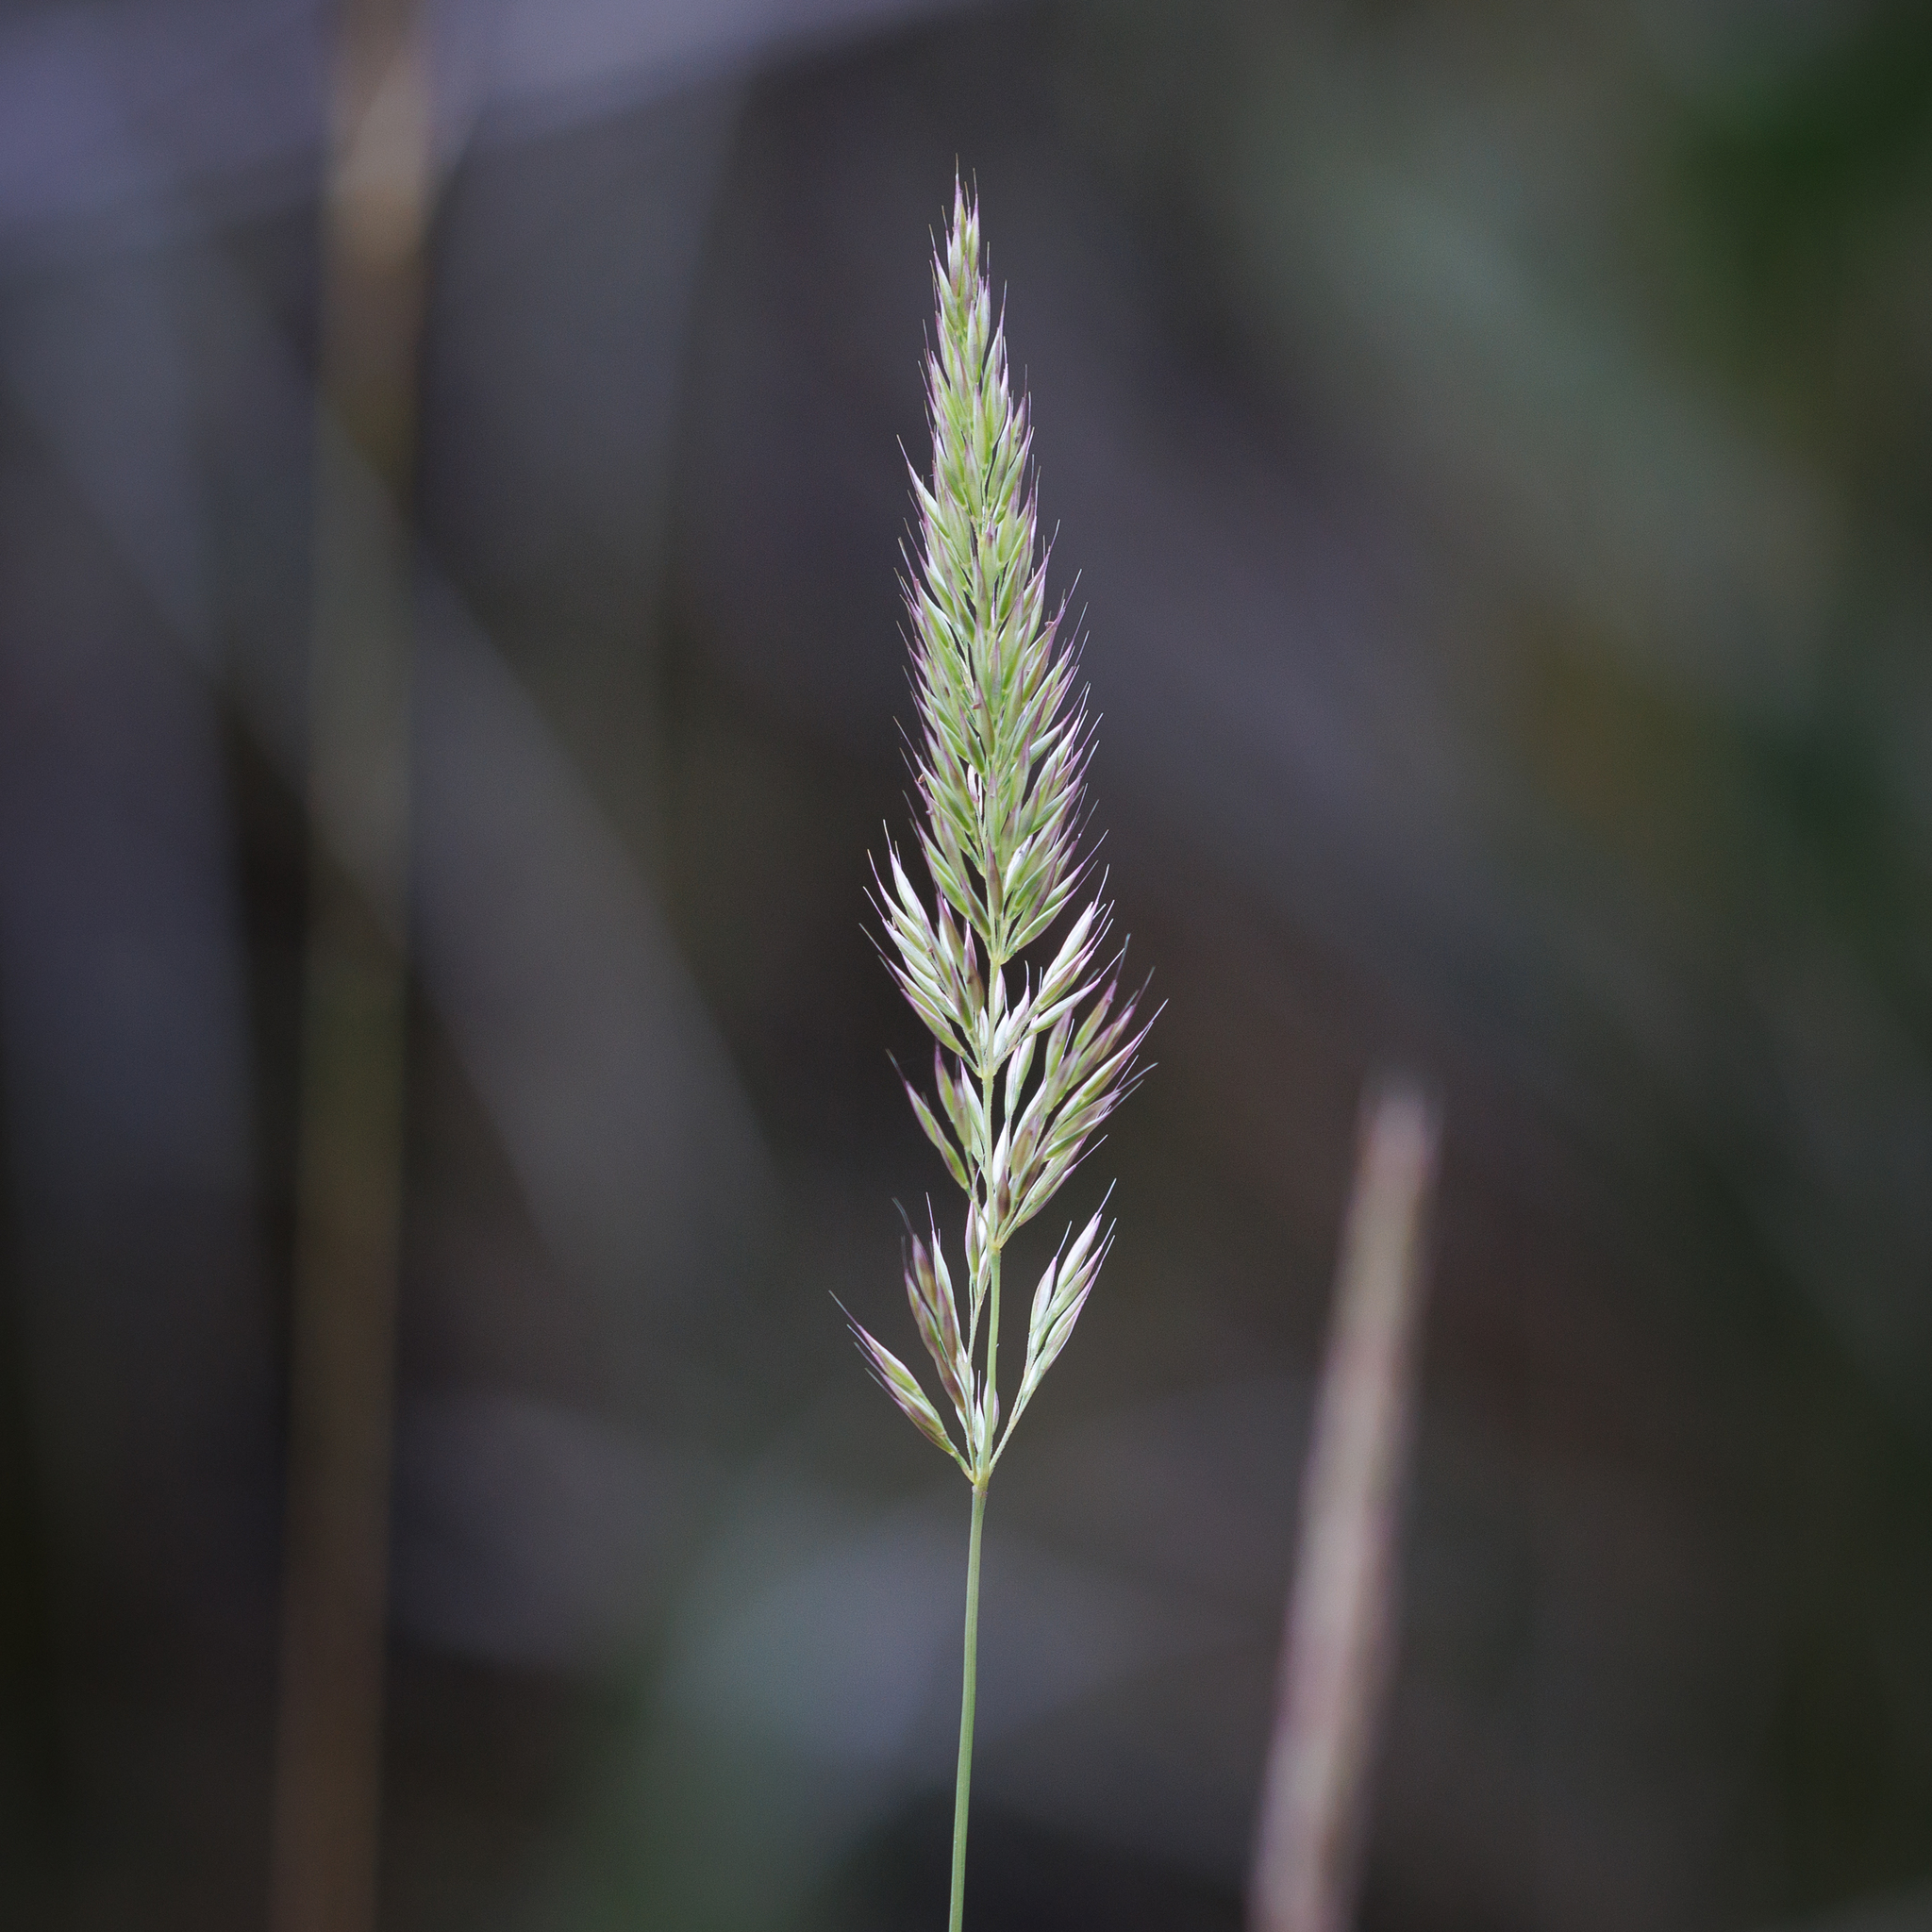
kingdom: Plantae
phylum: Tracheophyta
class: Liliopsida
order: Poales
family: Poaceae
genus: Calamagrostis
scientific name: Calamagrostis quadriseta
